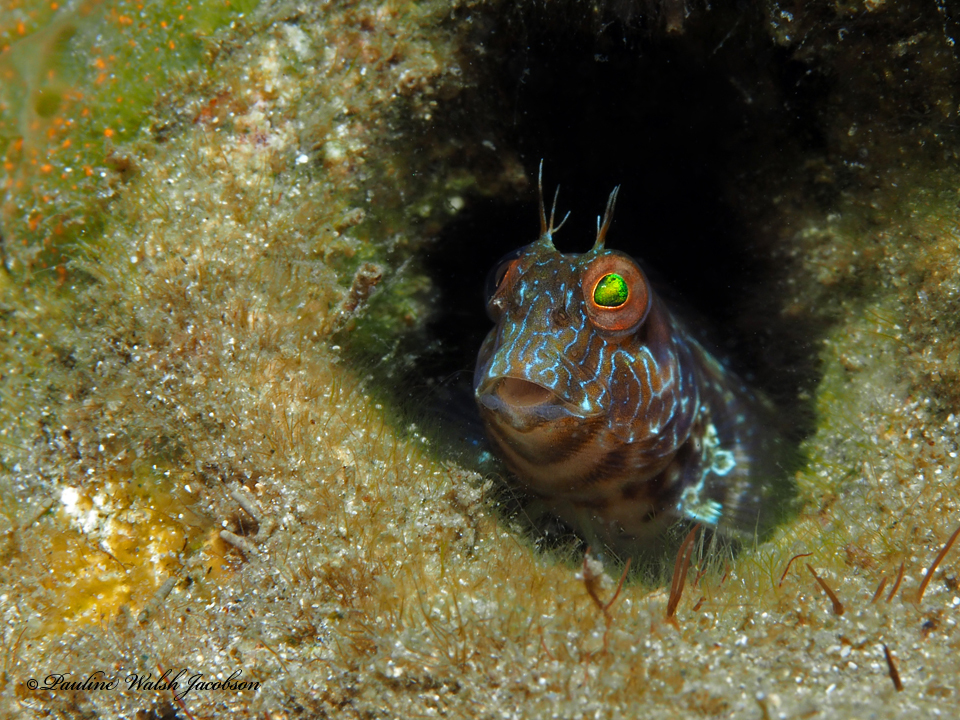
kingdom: Animalia
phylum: Chordata
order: Perciformes
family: Blenniidae
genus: Parablennius
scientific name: Parablennius marmoreus
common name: Seaweed blenny
